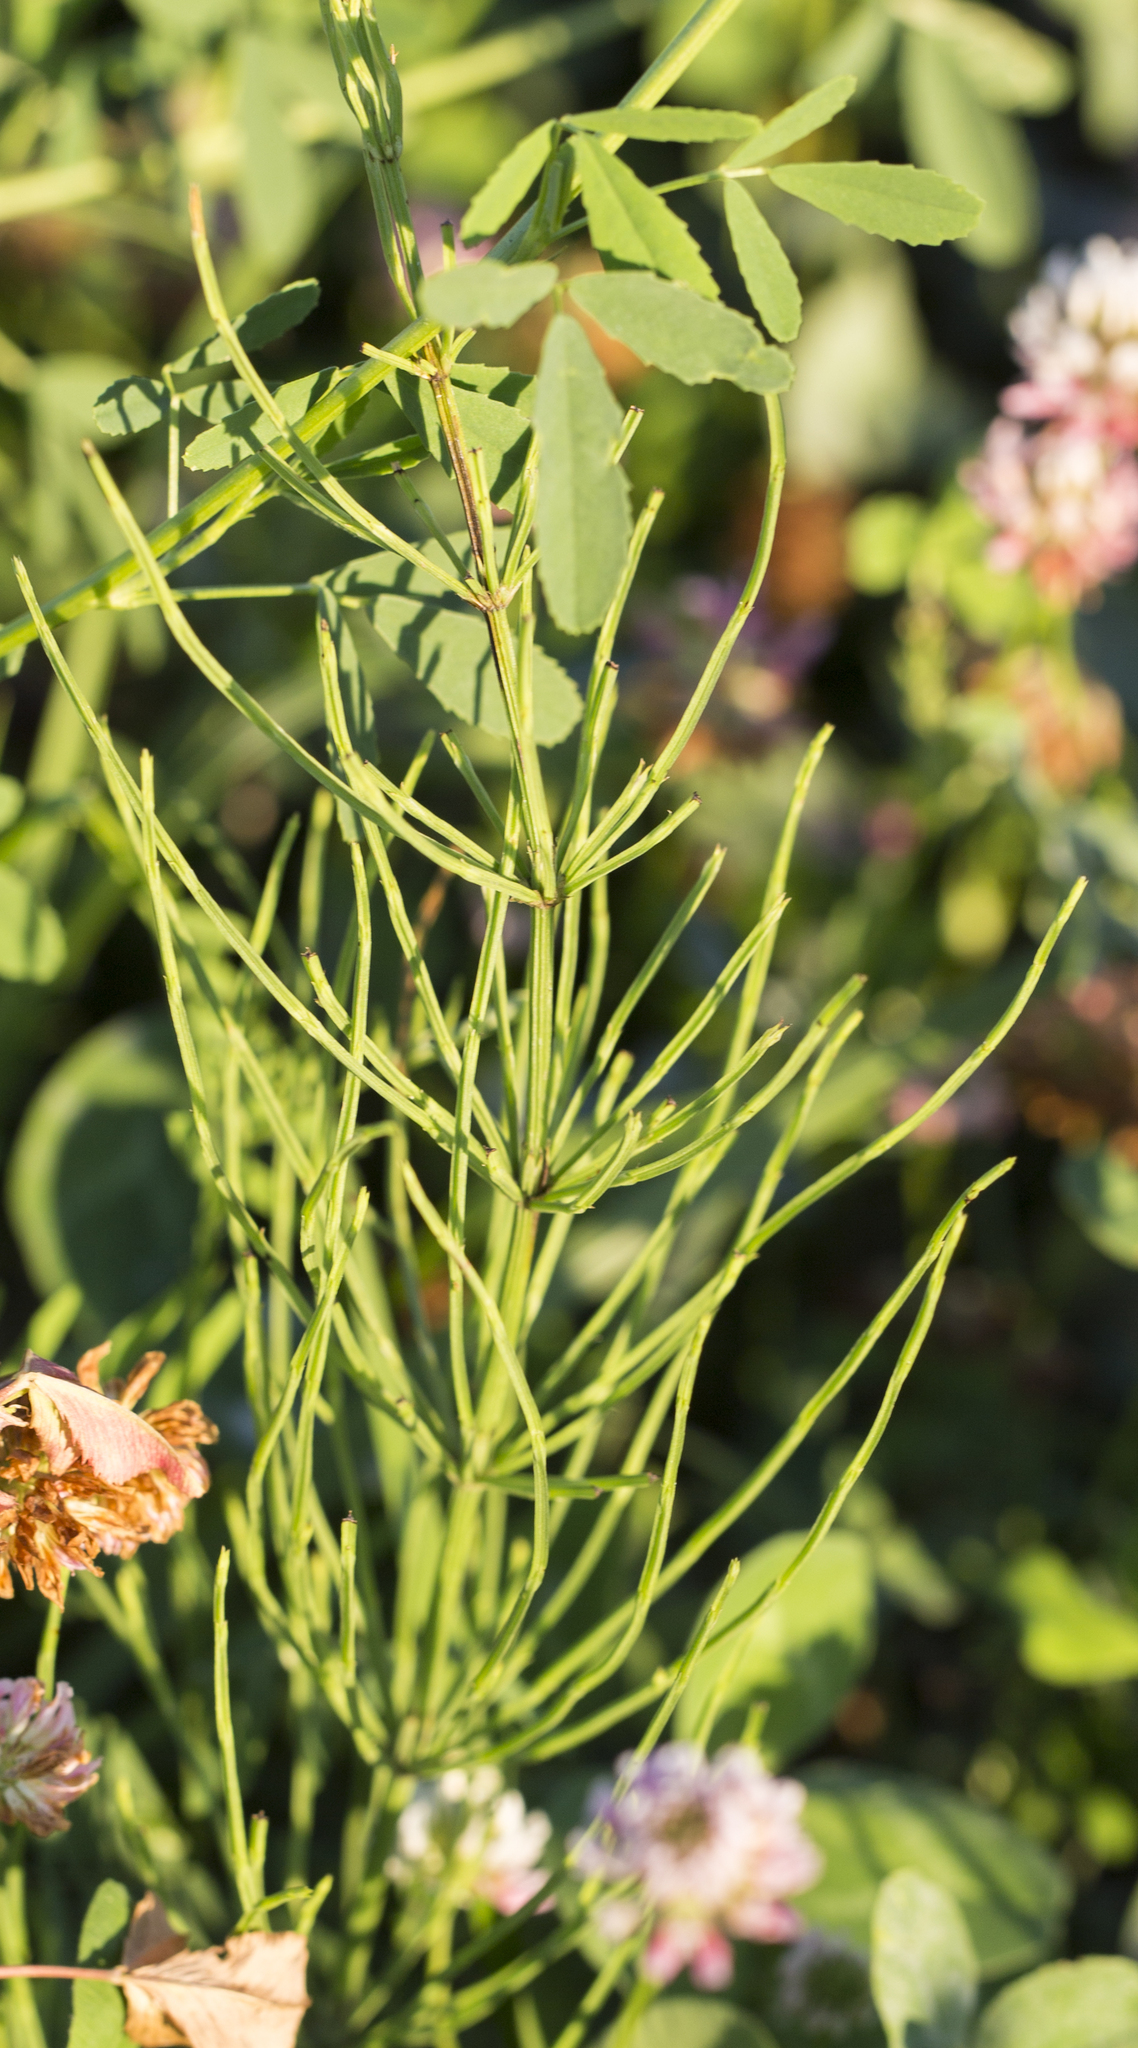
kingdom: Plantae
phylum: Tracheophyta
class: Polypodiopsida
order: Equisetales
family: Equisetaceae
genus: Equisetum
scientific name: Equisetum arvense
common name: Field horsetail
